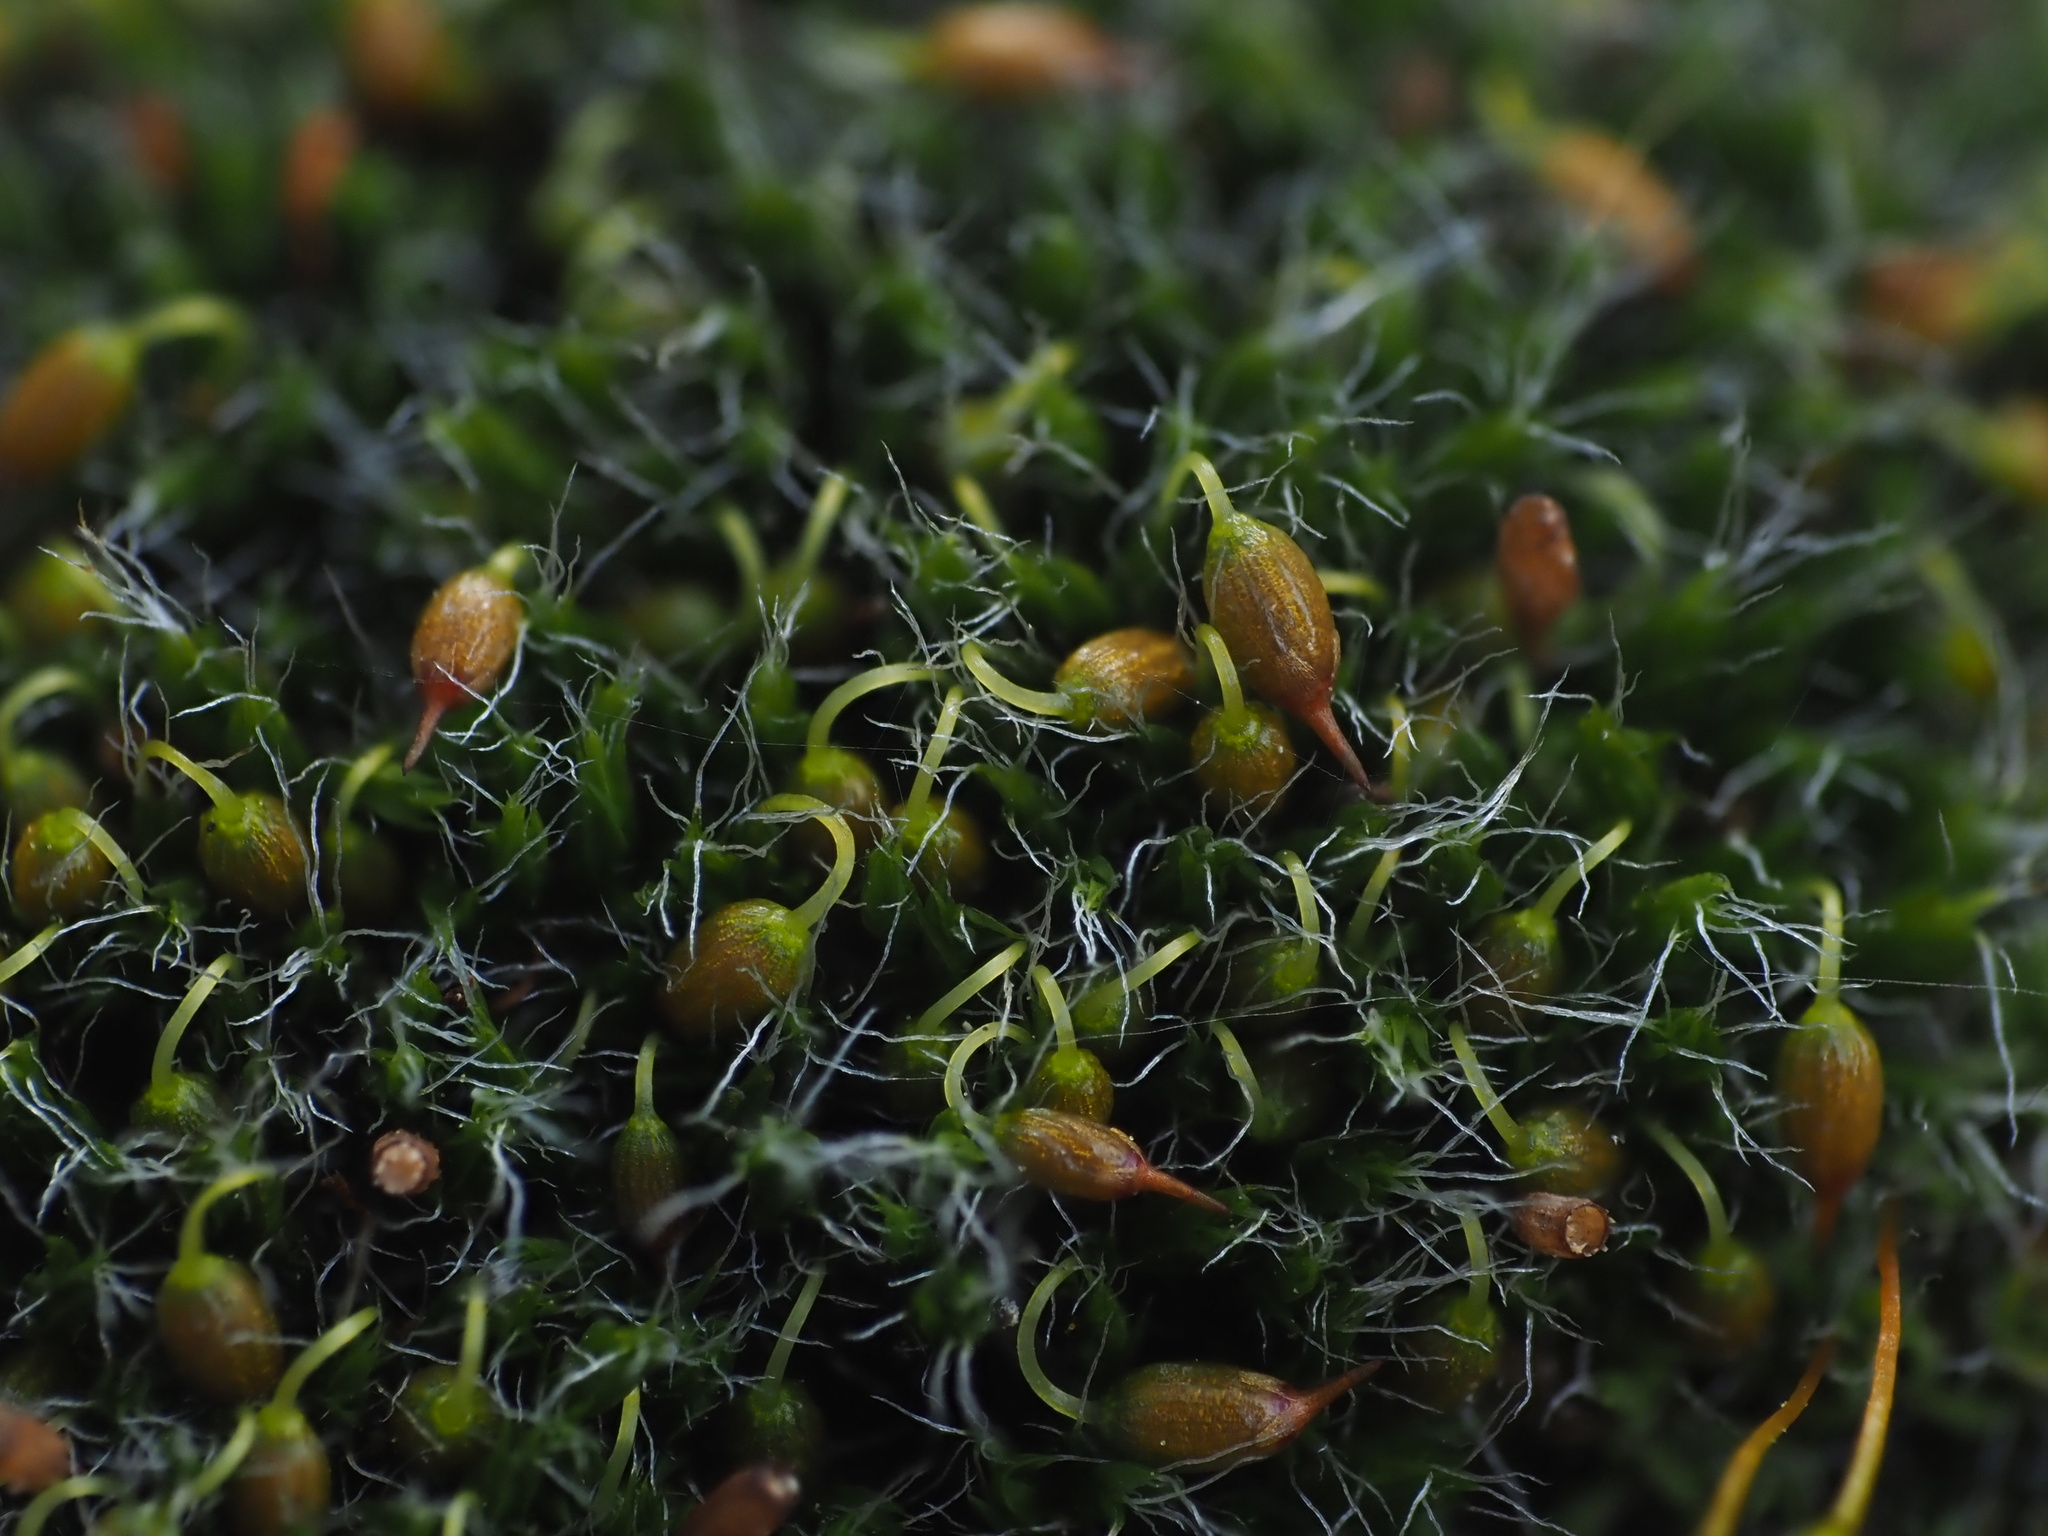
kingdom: Plantae
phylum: Bryophyta
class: Bryopsida
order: Grimmiales
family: Grimmiaceae
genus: Grimmia
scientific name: Grimmia pulvinata
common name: Grey-cushioned grimmia
